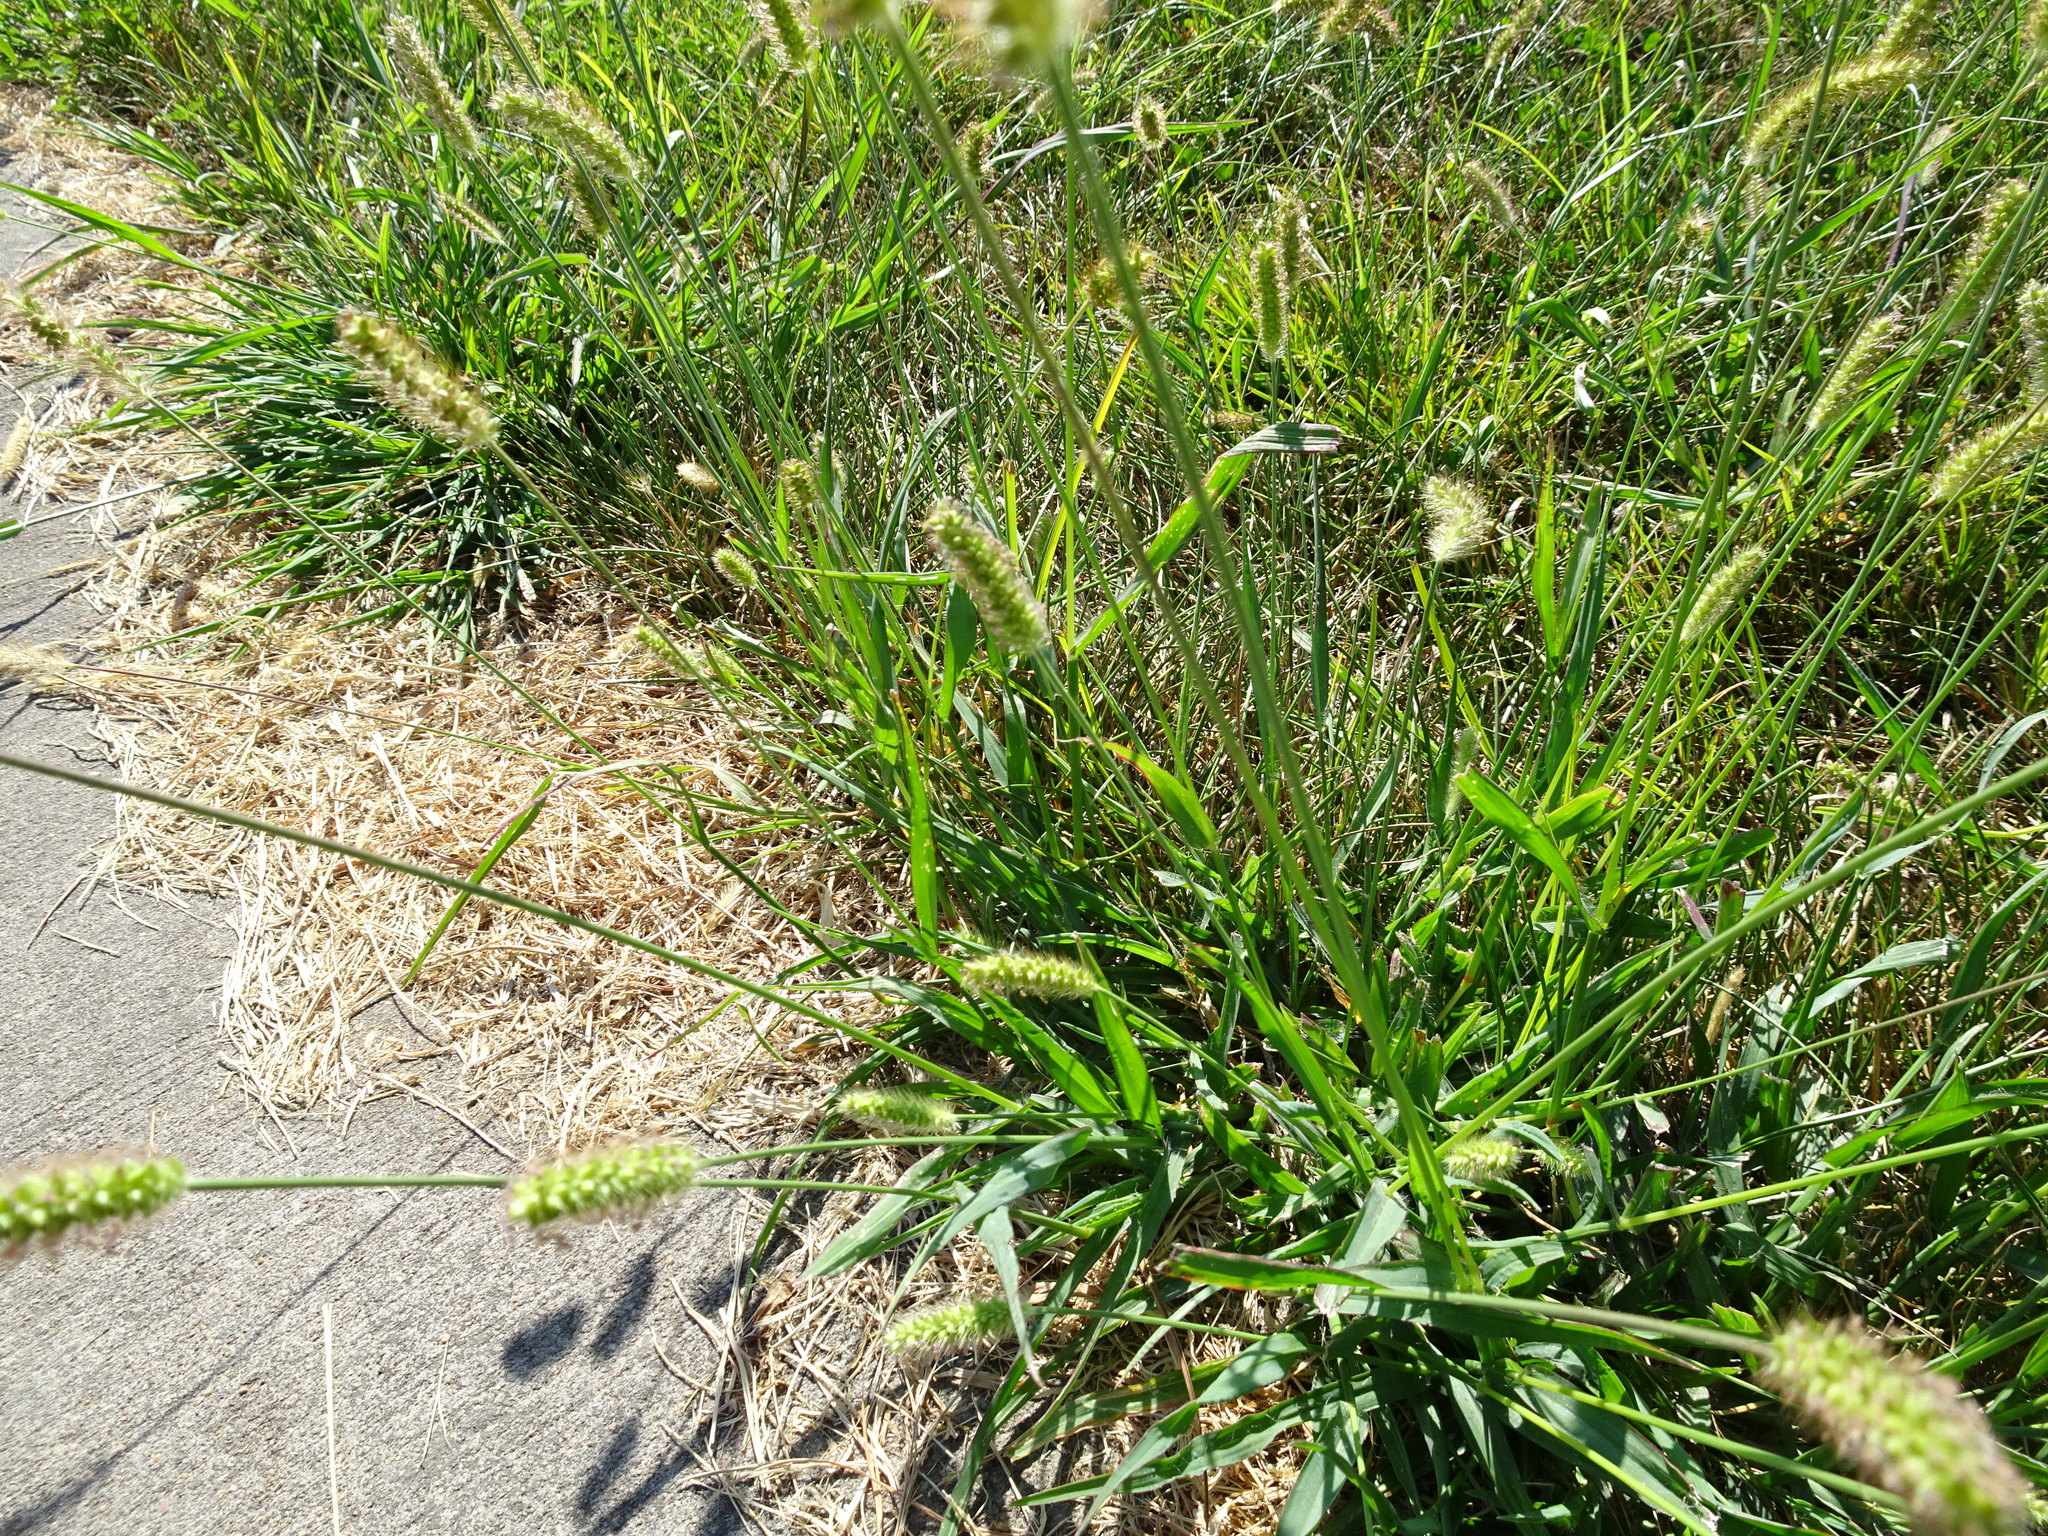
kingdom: Plantae
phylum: Tracheophyta
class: Liliopsida
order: Poales
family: Poaceae
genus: Setaria
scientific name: Setaria pumila
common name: Yellow bristle-grass
